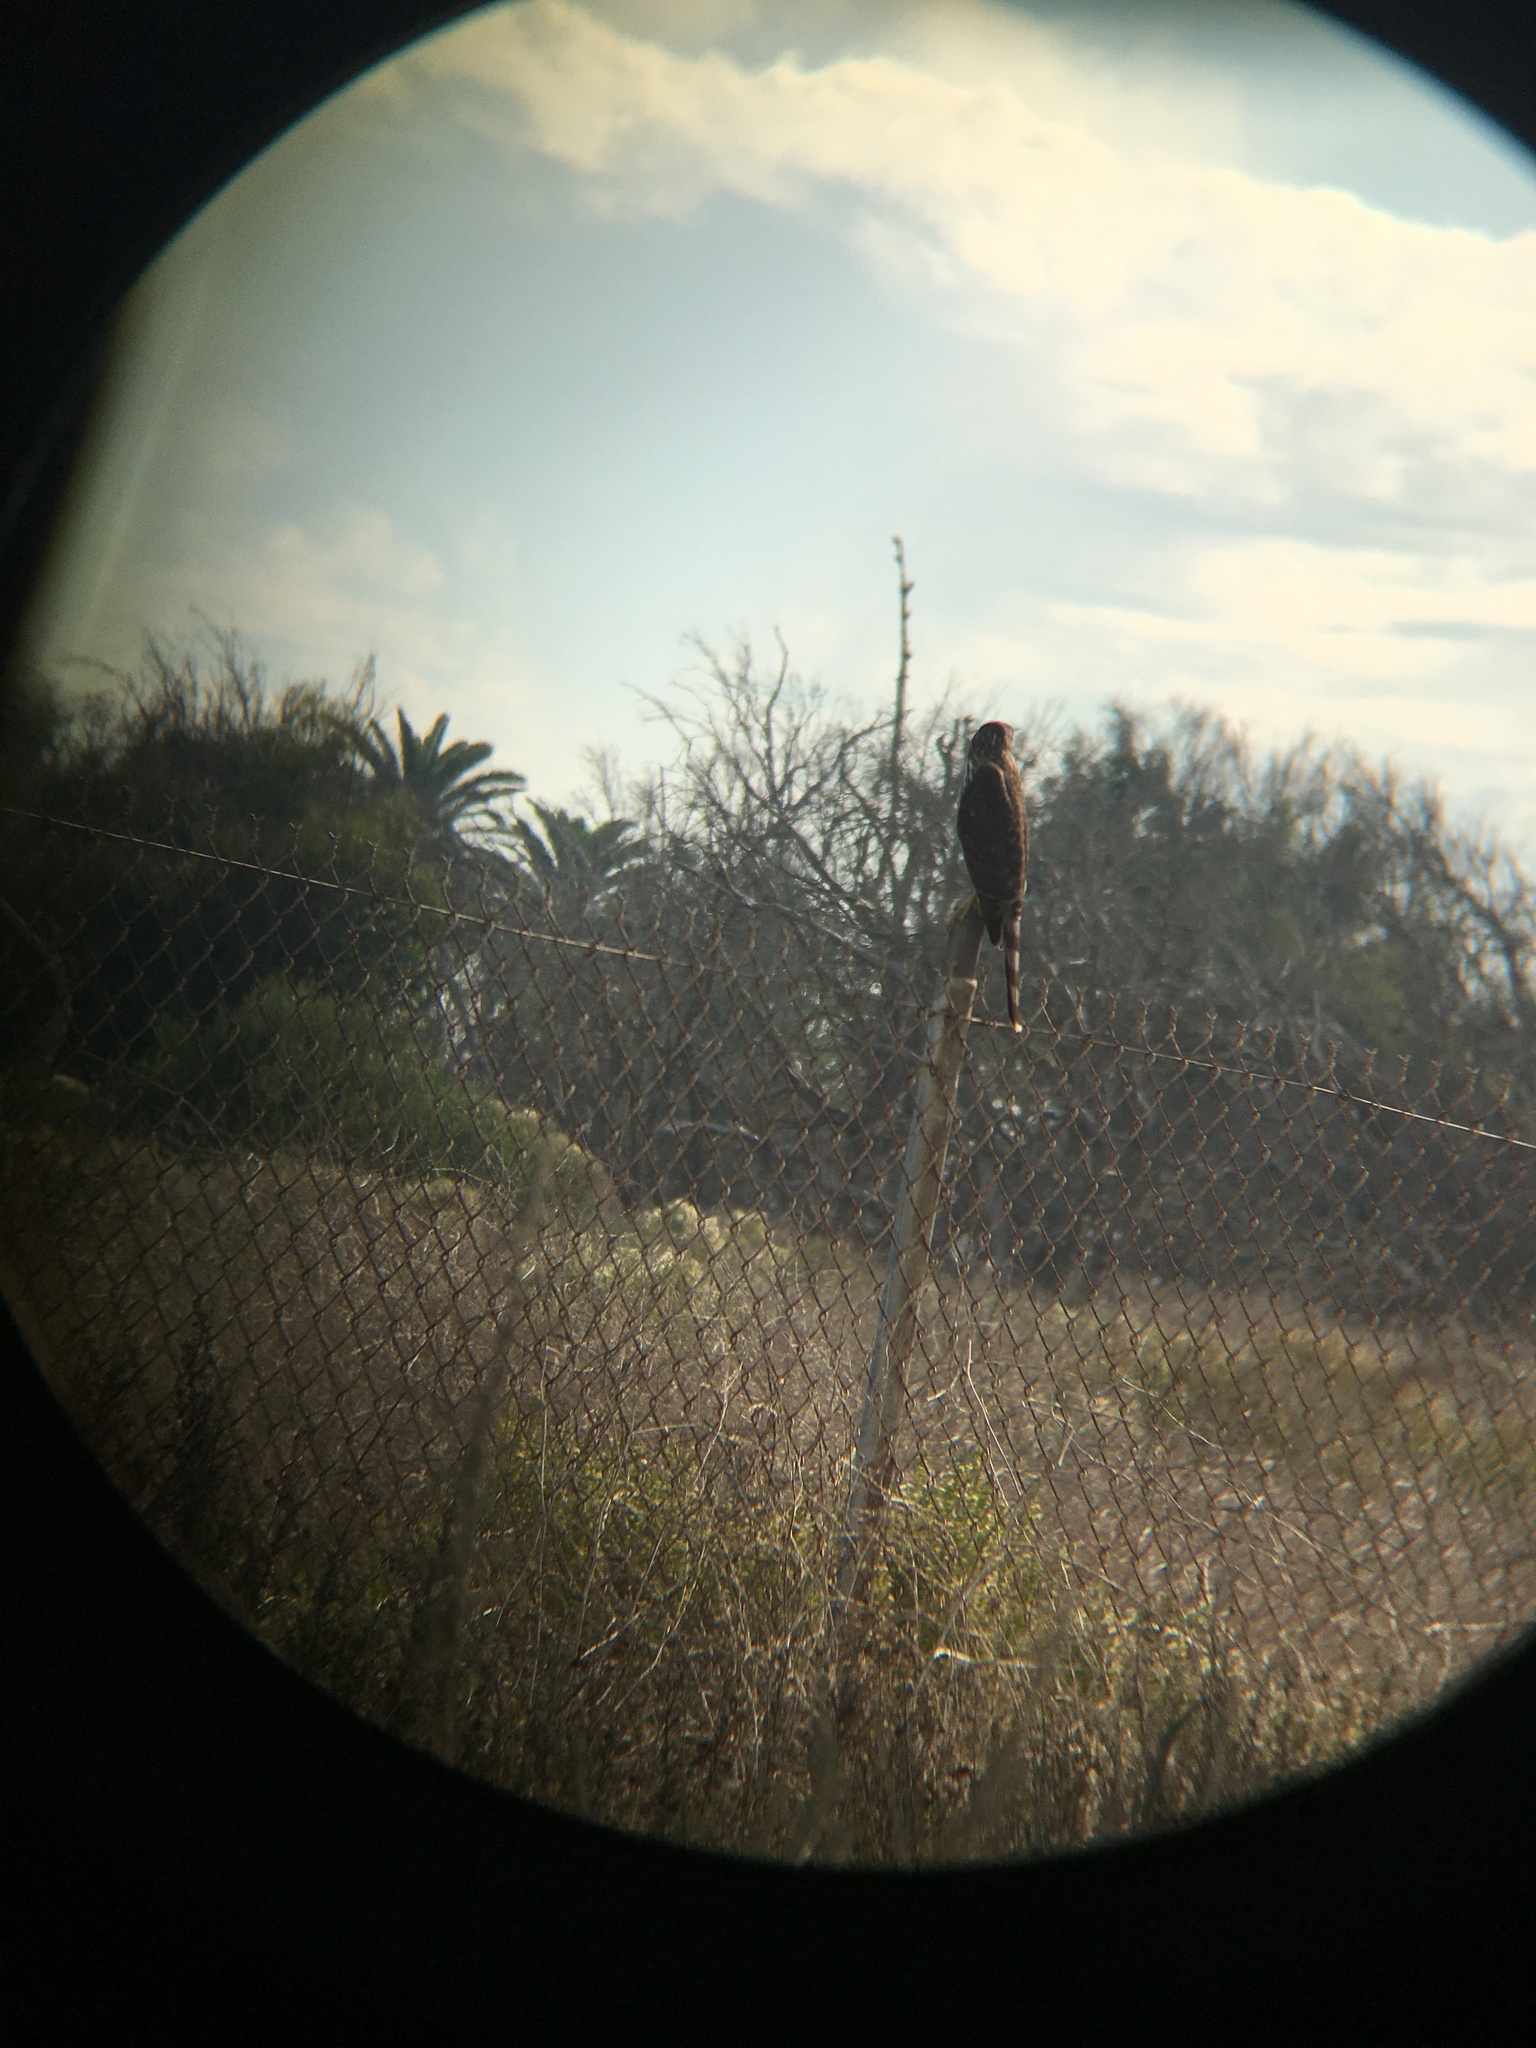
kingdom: Animalia
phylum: Chordata
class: Aves
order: Accipitriformes
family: Accipitridae
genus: Accipiter
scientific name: Accipiter cooperii
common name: Cooper's hawk
